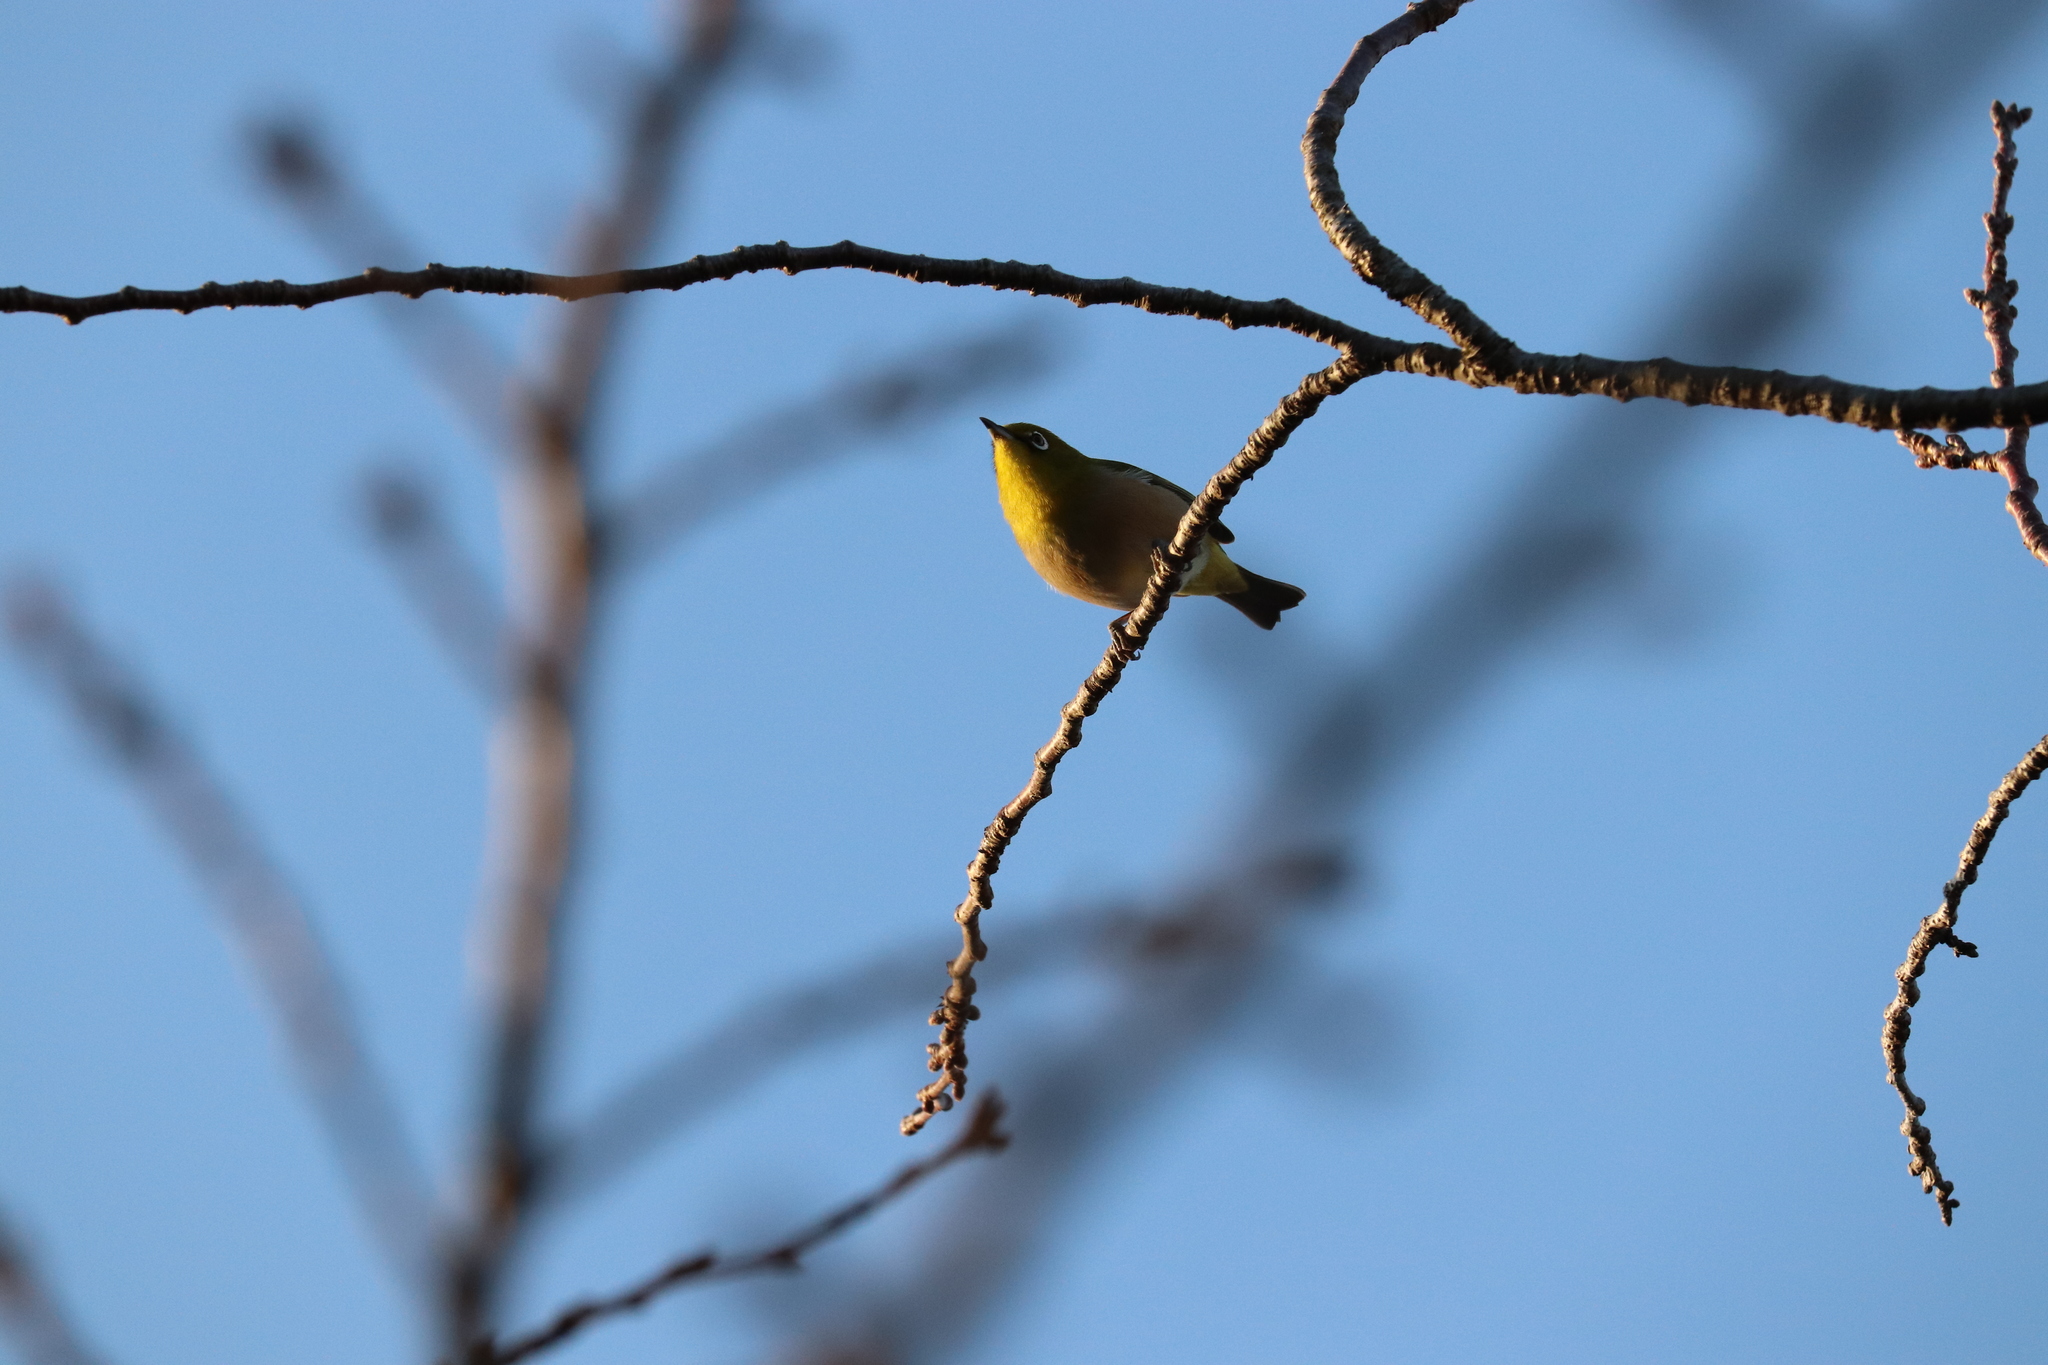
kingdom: Animalia
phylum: Chordata
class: Aves
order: Passeriformes
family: Zosteropidae
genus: Zosterops
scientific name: Zosterops japonicus
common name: Japanese white-eye
